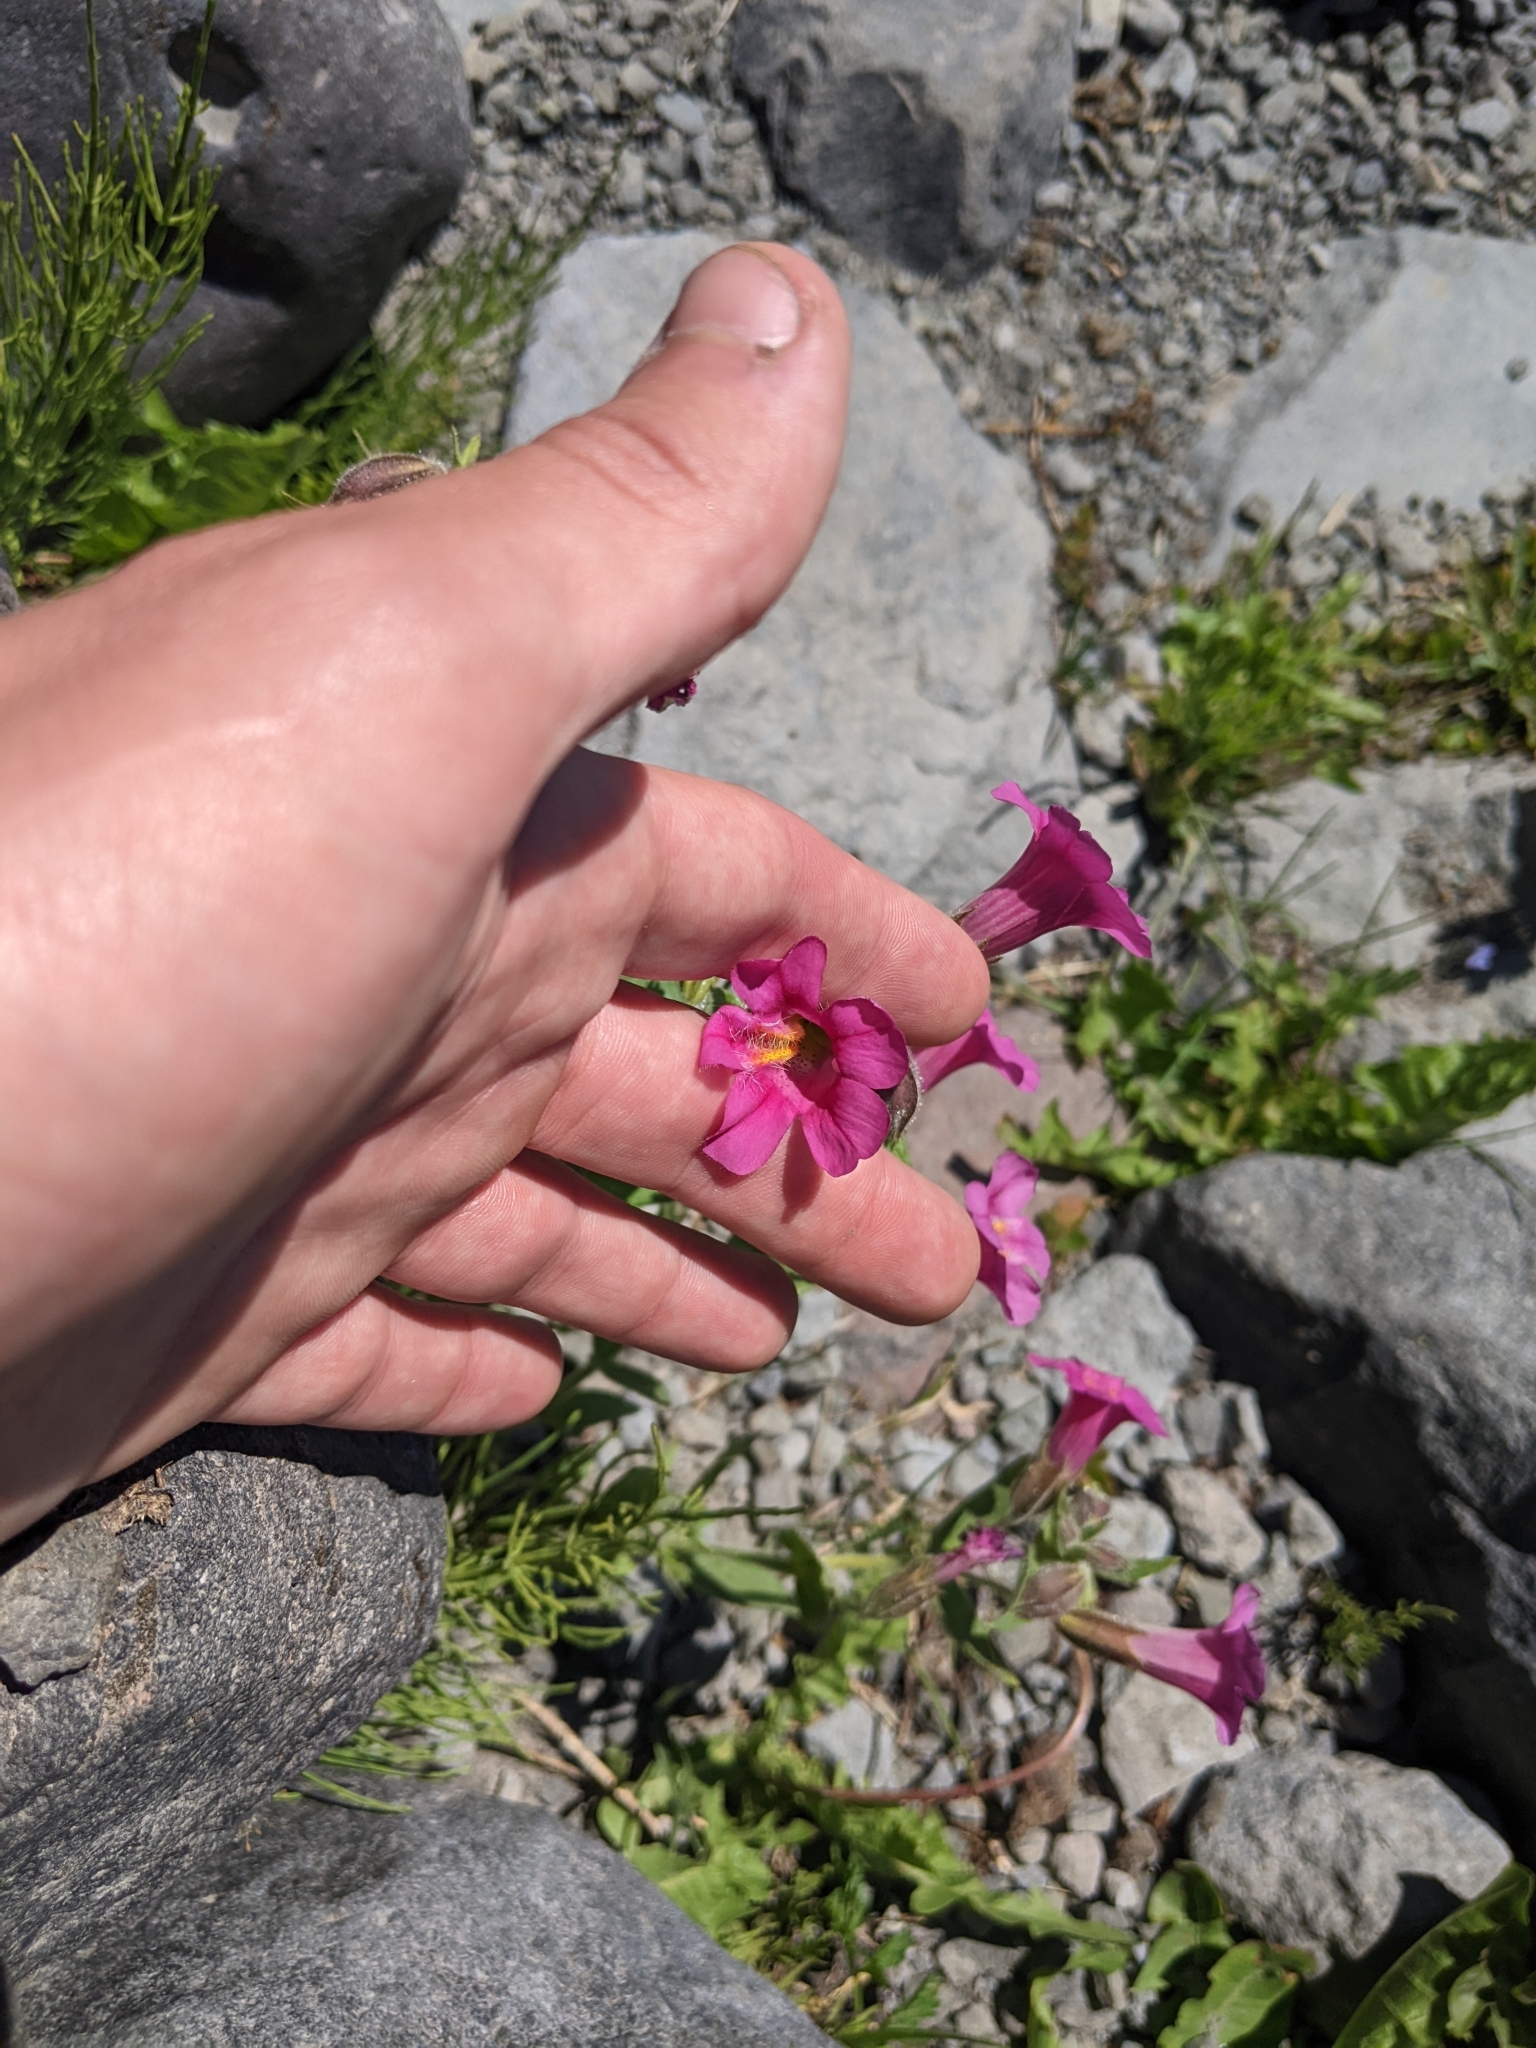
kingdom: Plantae
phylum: Tracheophyta
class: Magnoliopsida
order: Lamiales
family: Phrymaceae
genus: Erythranthe
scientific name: Erythranthe lewisii
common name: Lewis's monkey-flower
